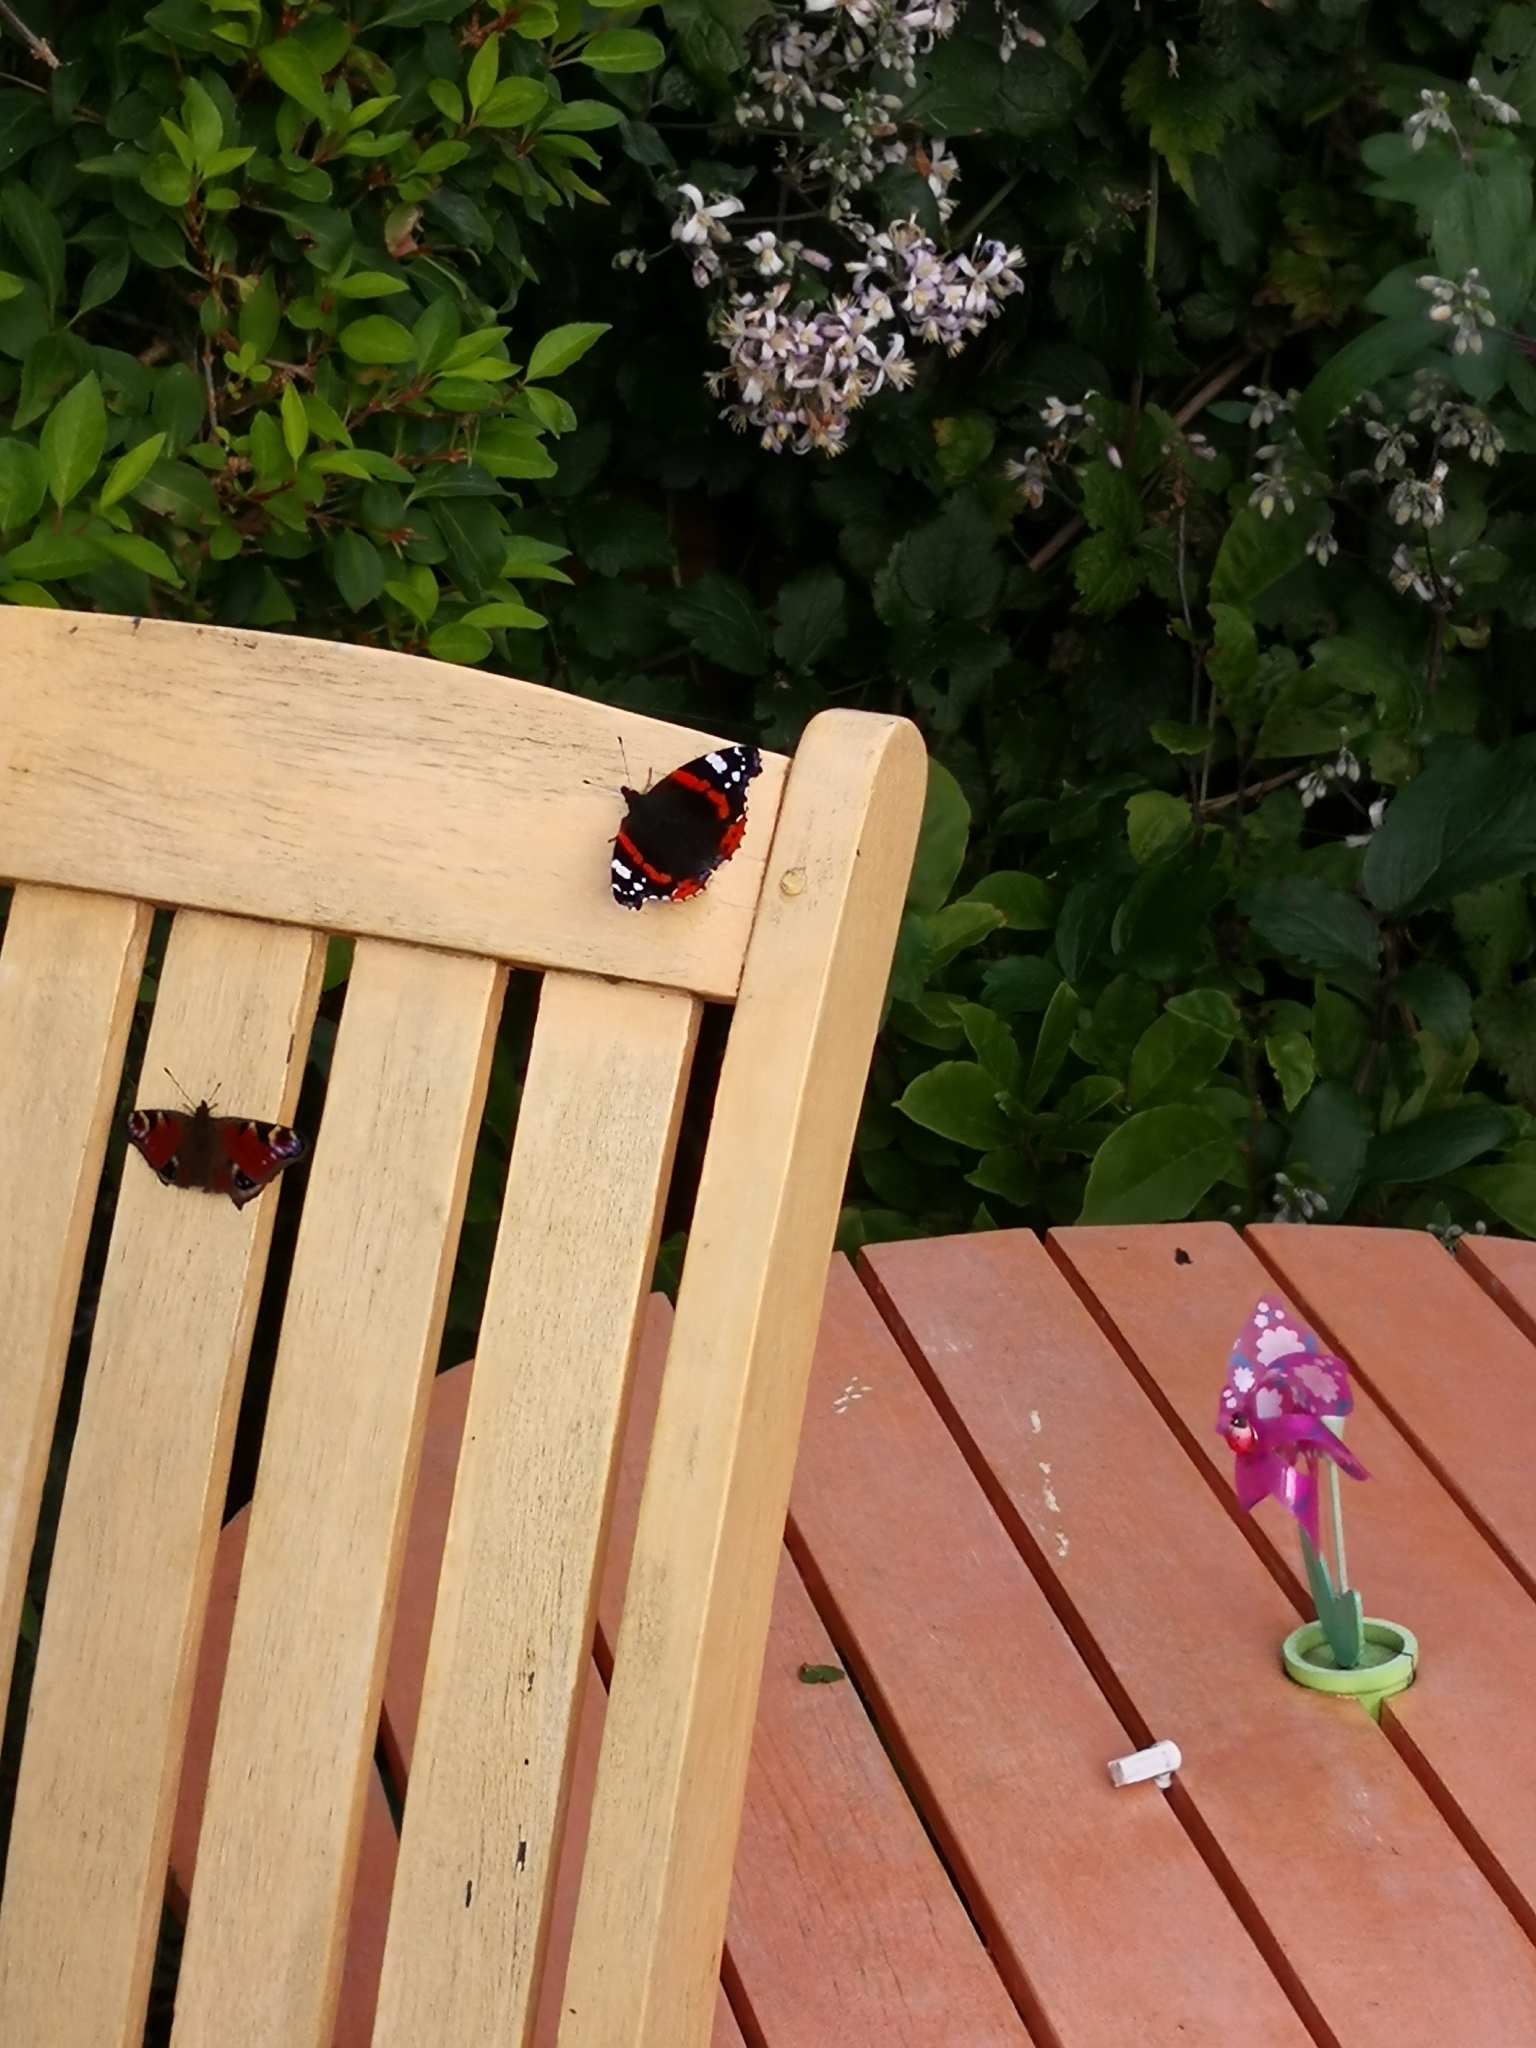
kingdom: Animalia
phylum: Arthropoda
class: Insecta
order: Lepidoptera
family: Nymphalidae
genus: Aglais
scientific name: Aglais io
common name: Peacock
